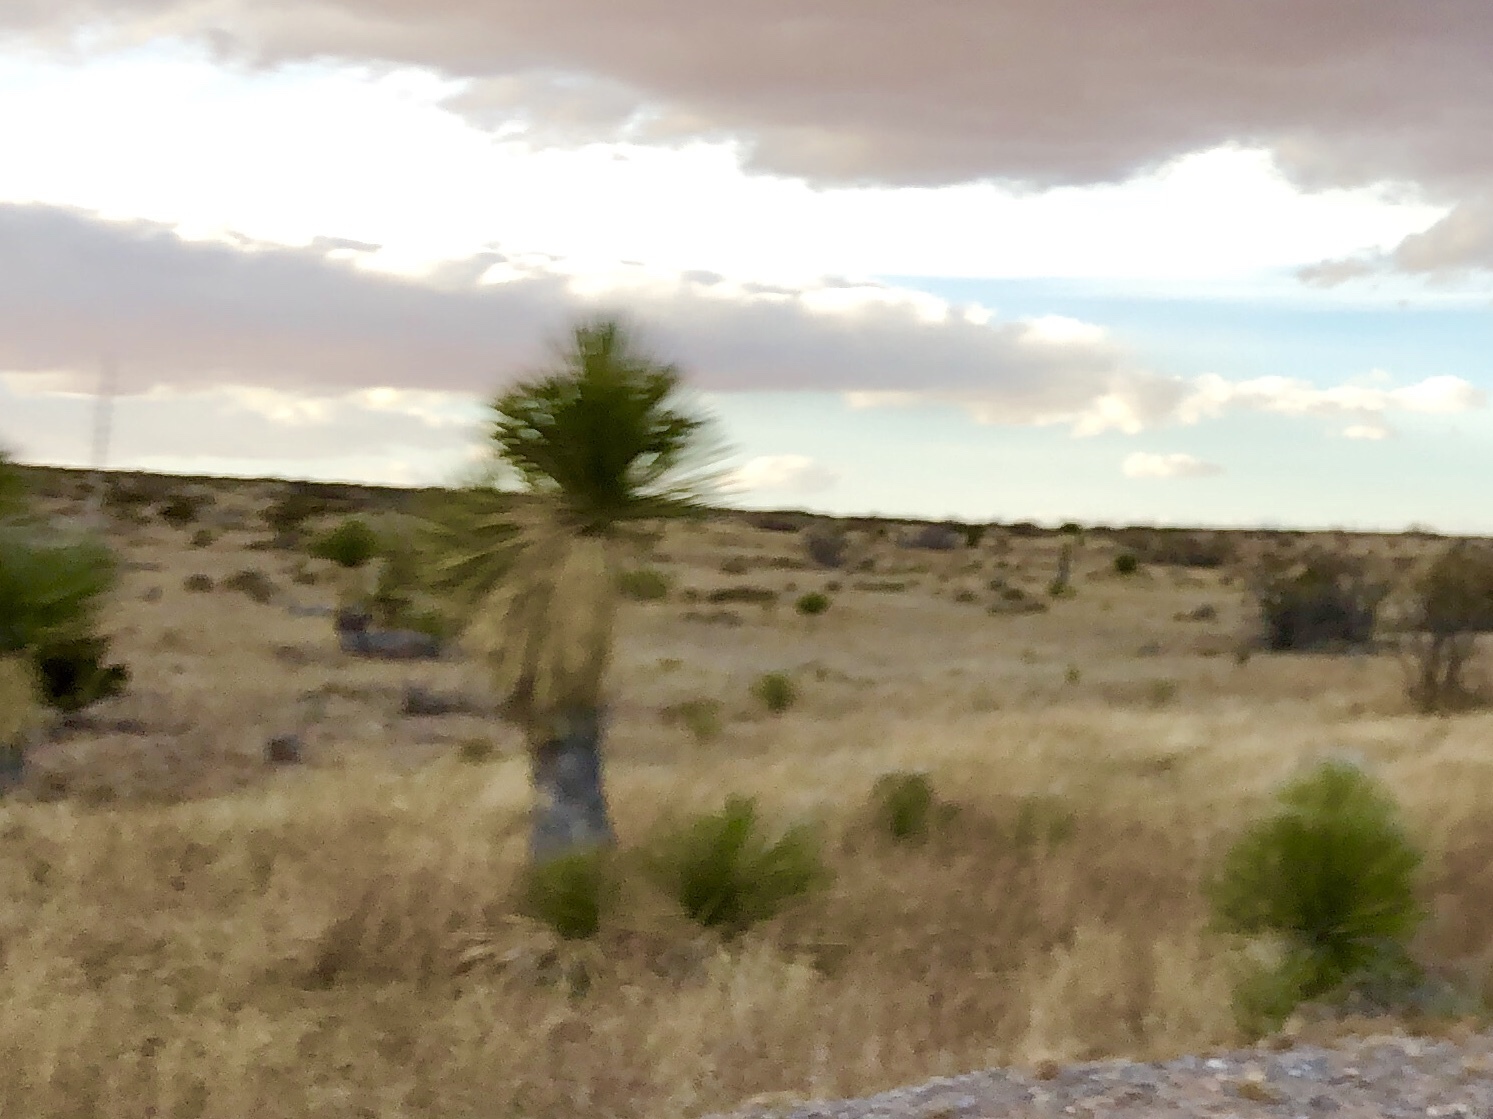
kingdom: Plantae
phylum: Tracheophyta
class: Liliopsida
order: Asparagales
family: Asparagaceae
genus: Yucca
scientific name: Yucca elata
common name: Palmella
